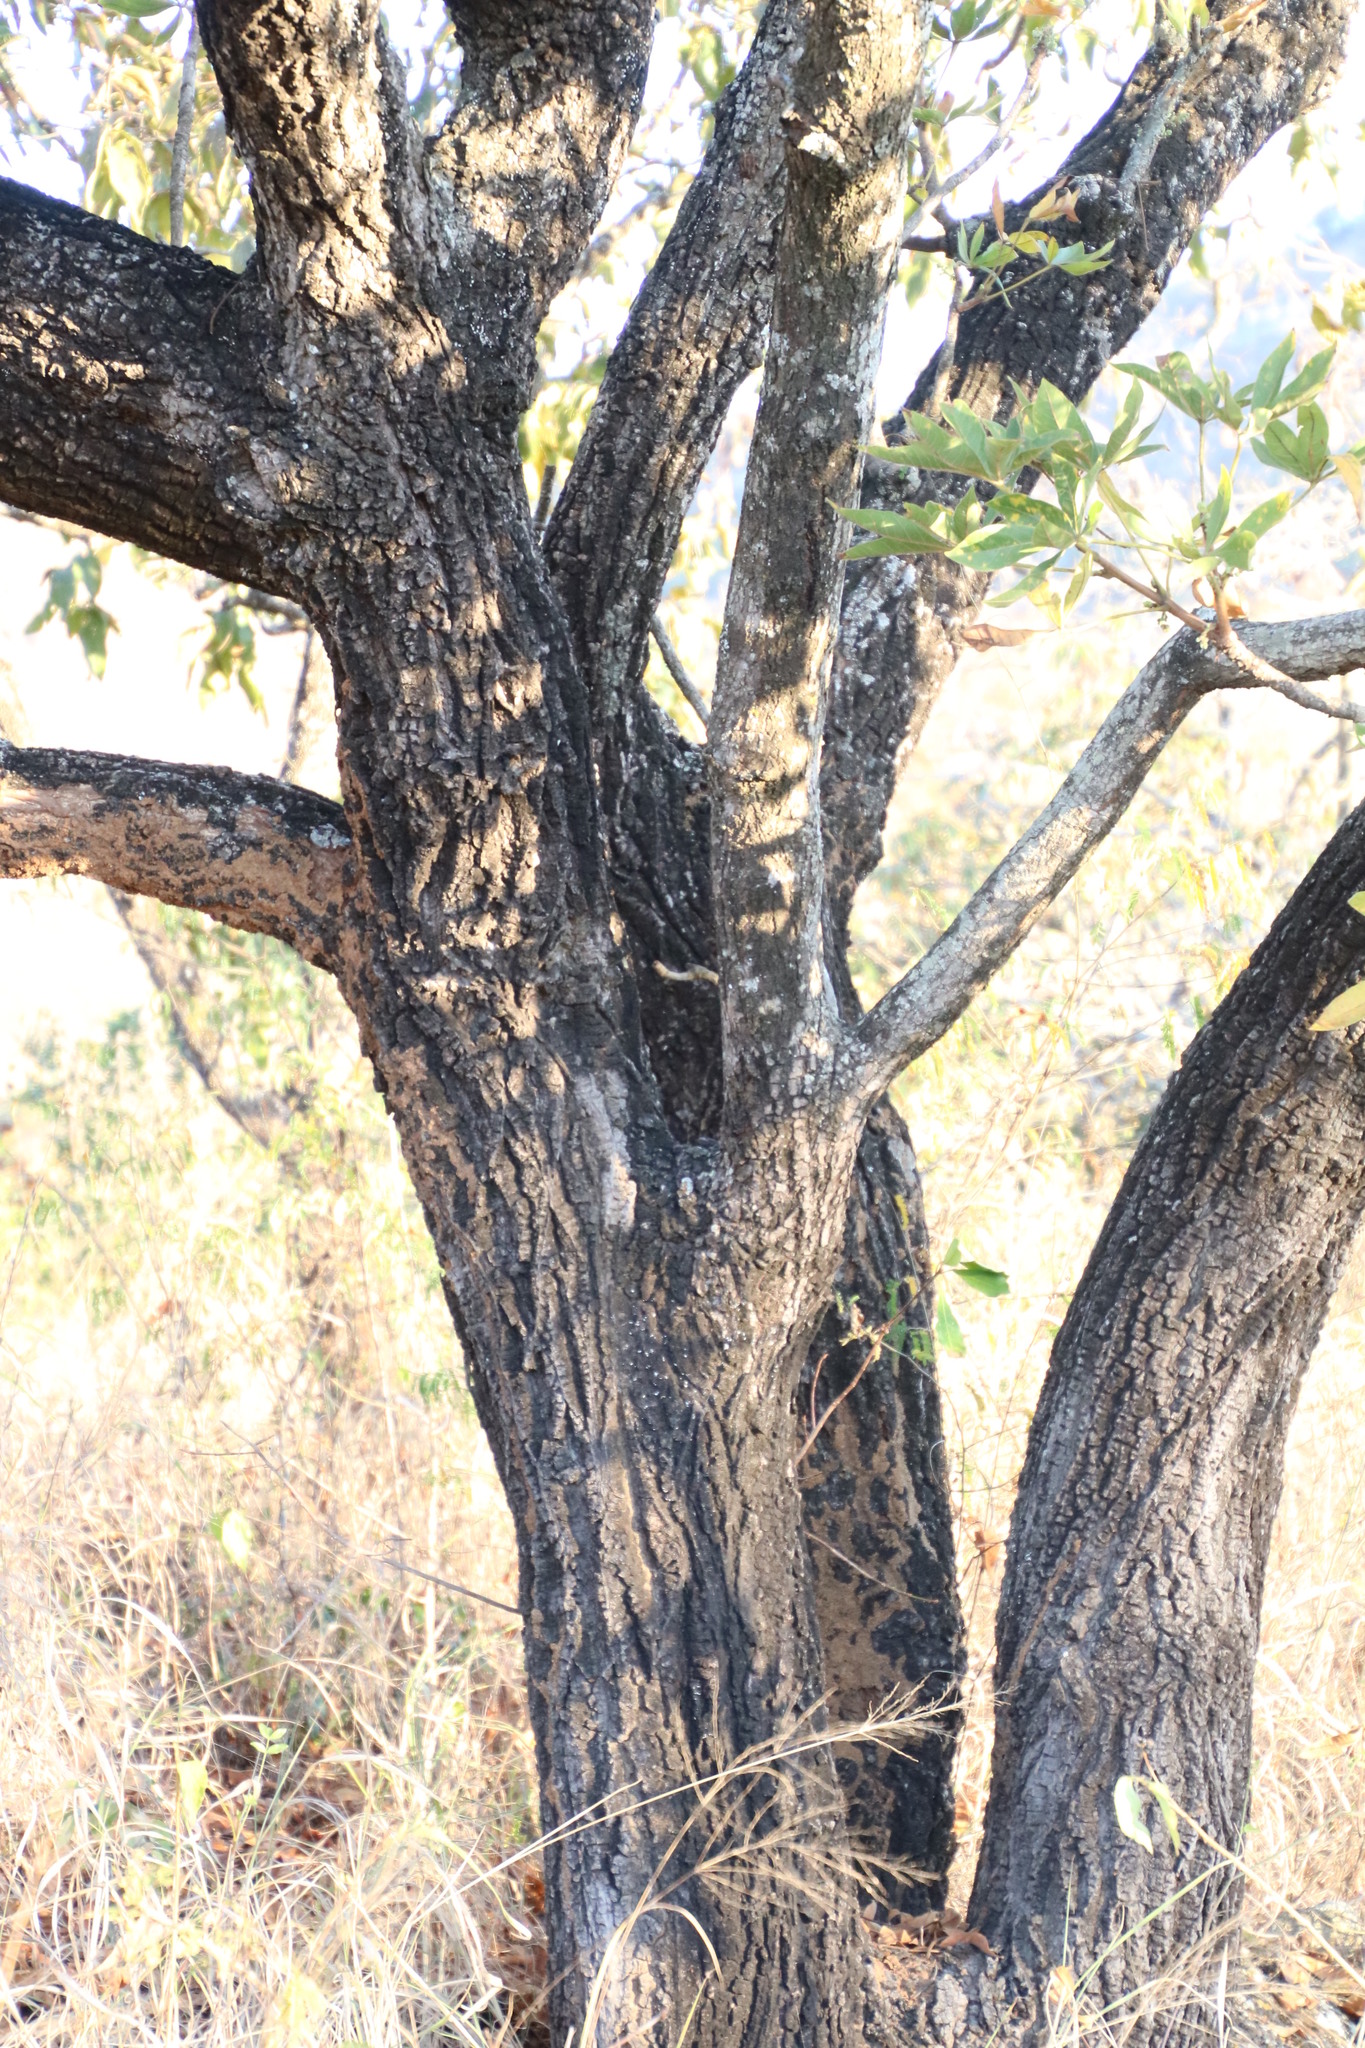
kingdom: Plantae
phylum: Tracheophyta
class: Magnoliopsida
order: Malvales
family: Malvaceae
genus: Sterculia
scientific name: Sterculia murex
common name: Lowveld star-chestnut
